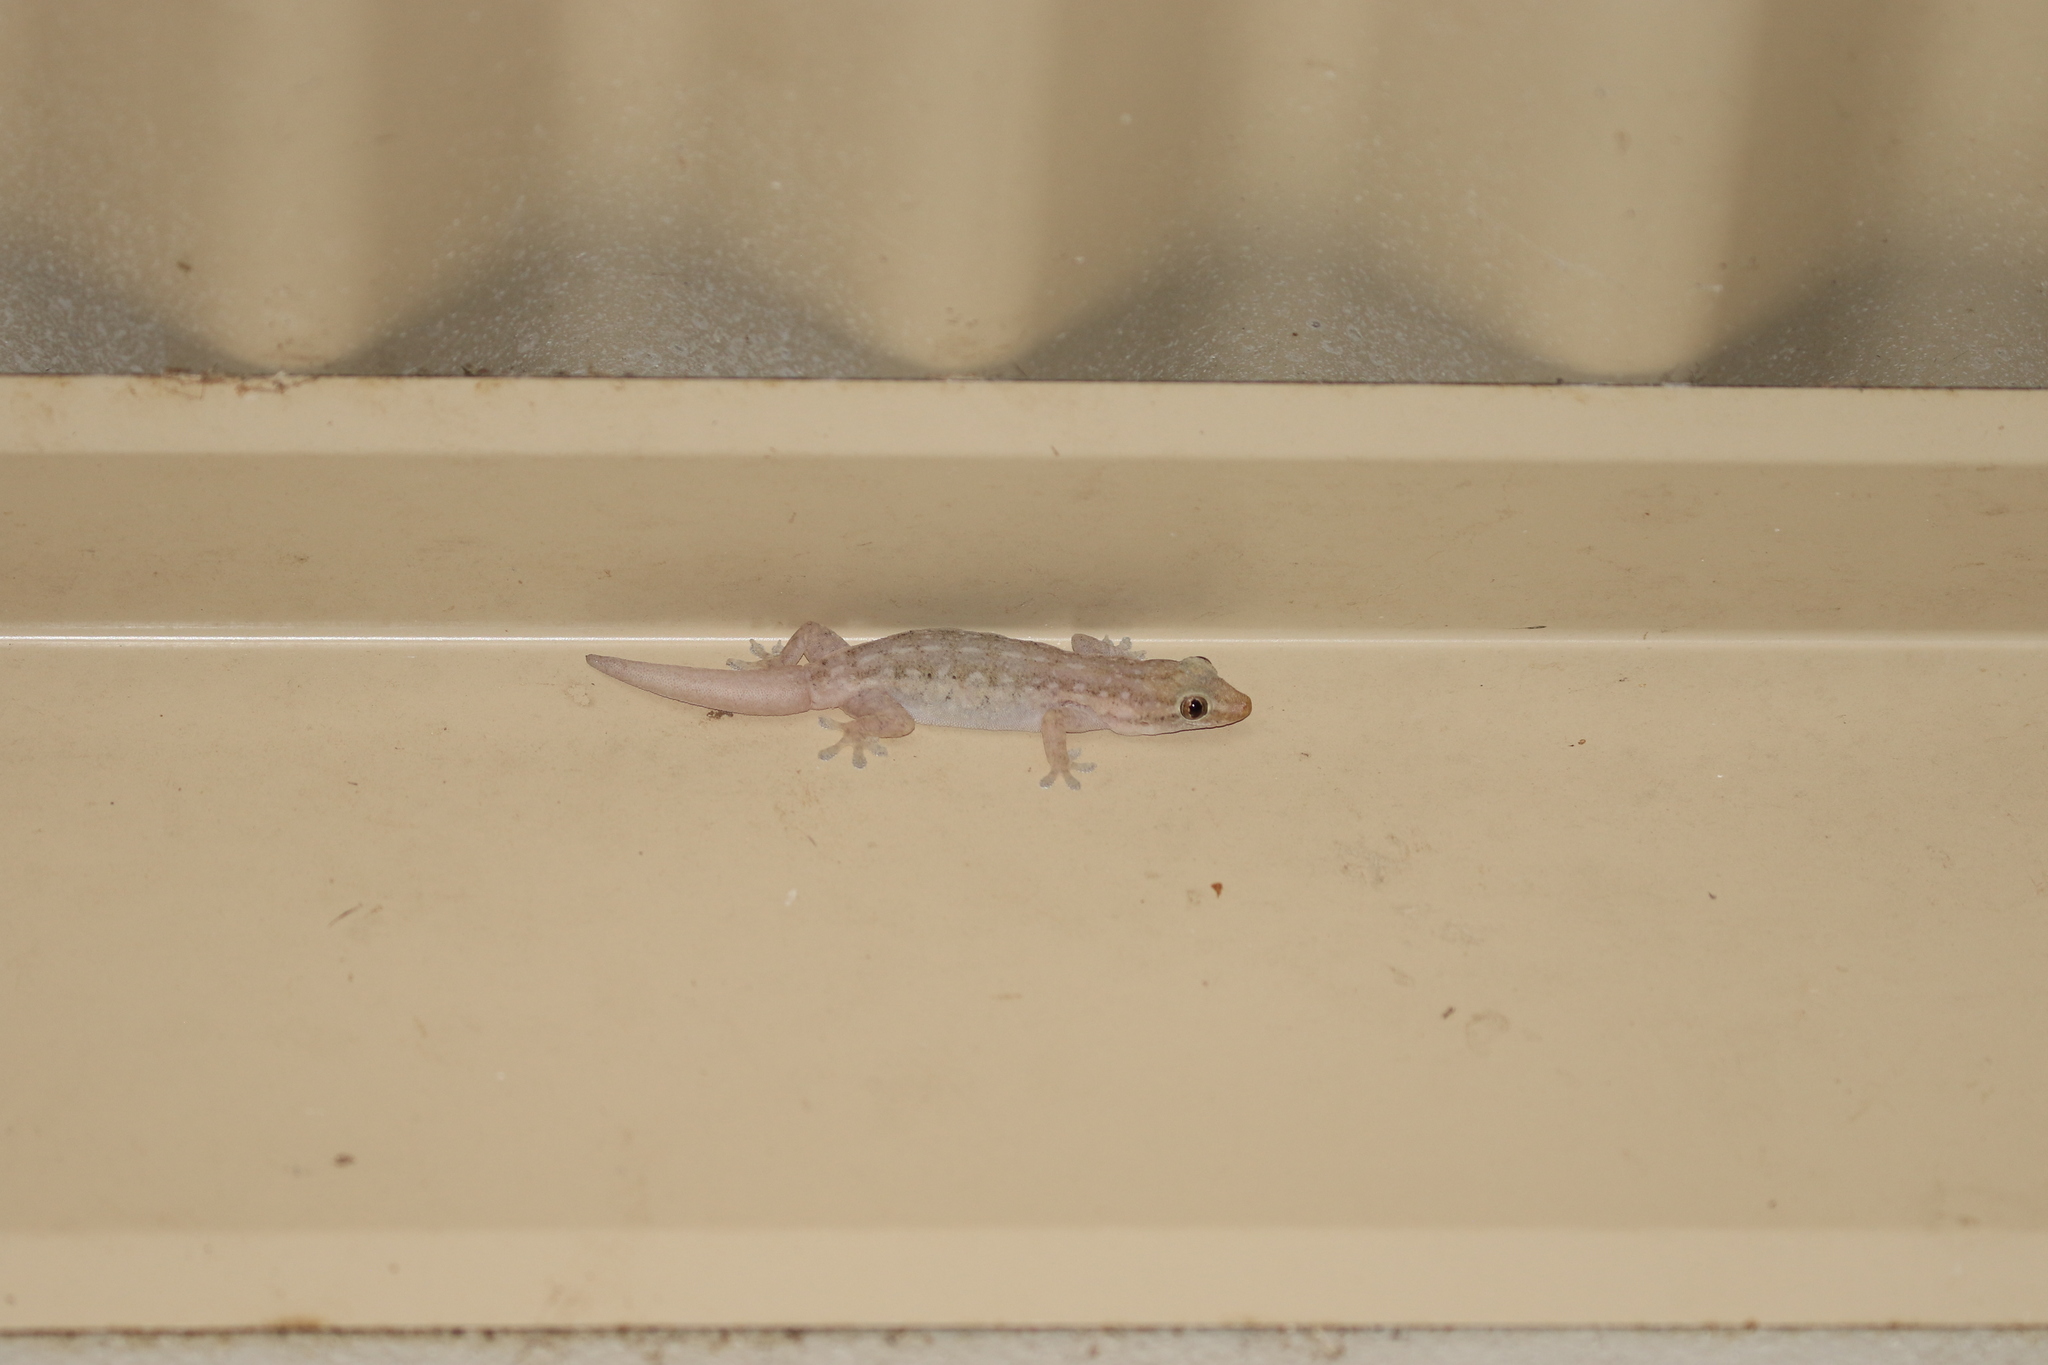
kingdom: Animalia
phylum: Chordata
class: Squamata
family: Gekkonidae
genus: Hemidactylus
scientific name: Hemidactylus frenatus
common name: Common house gecko
